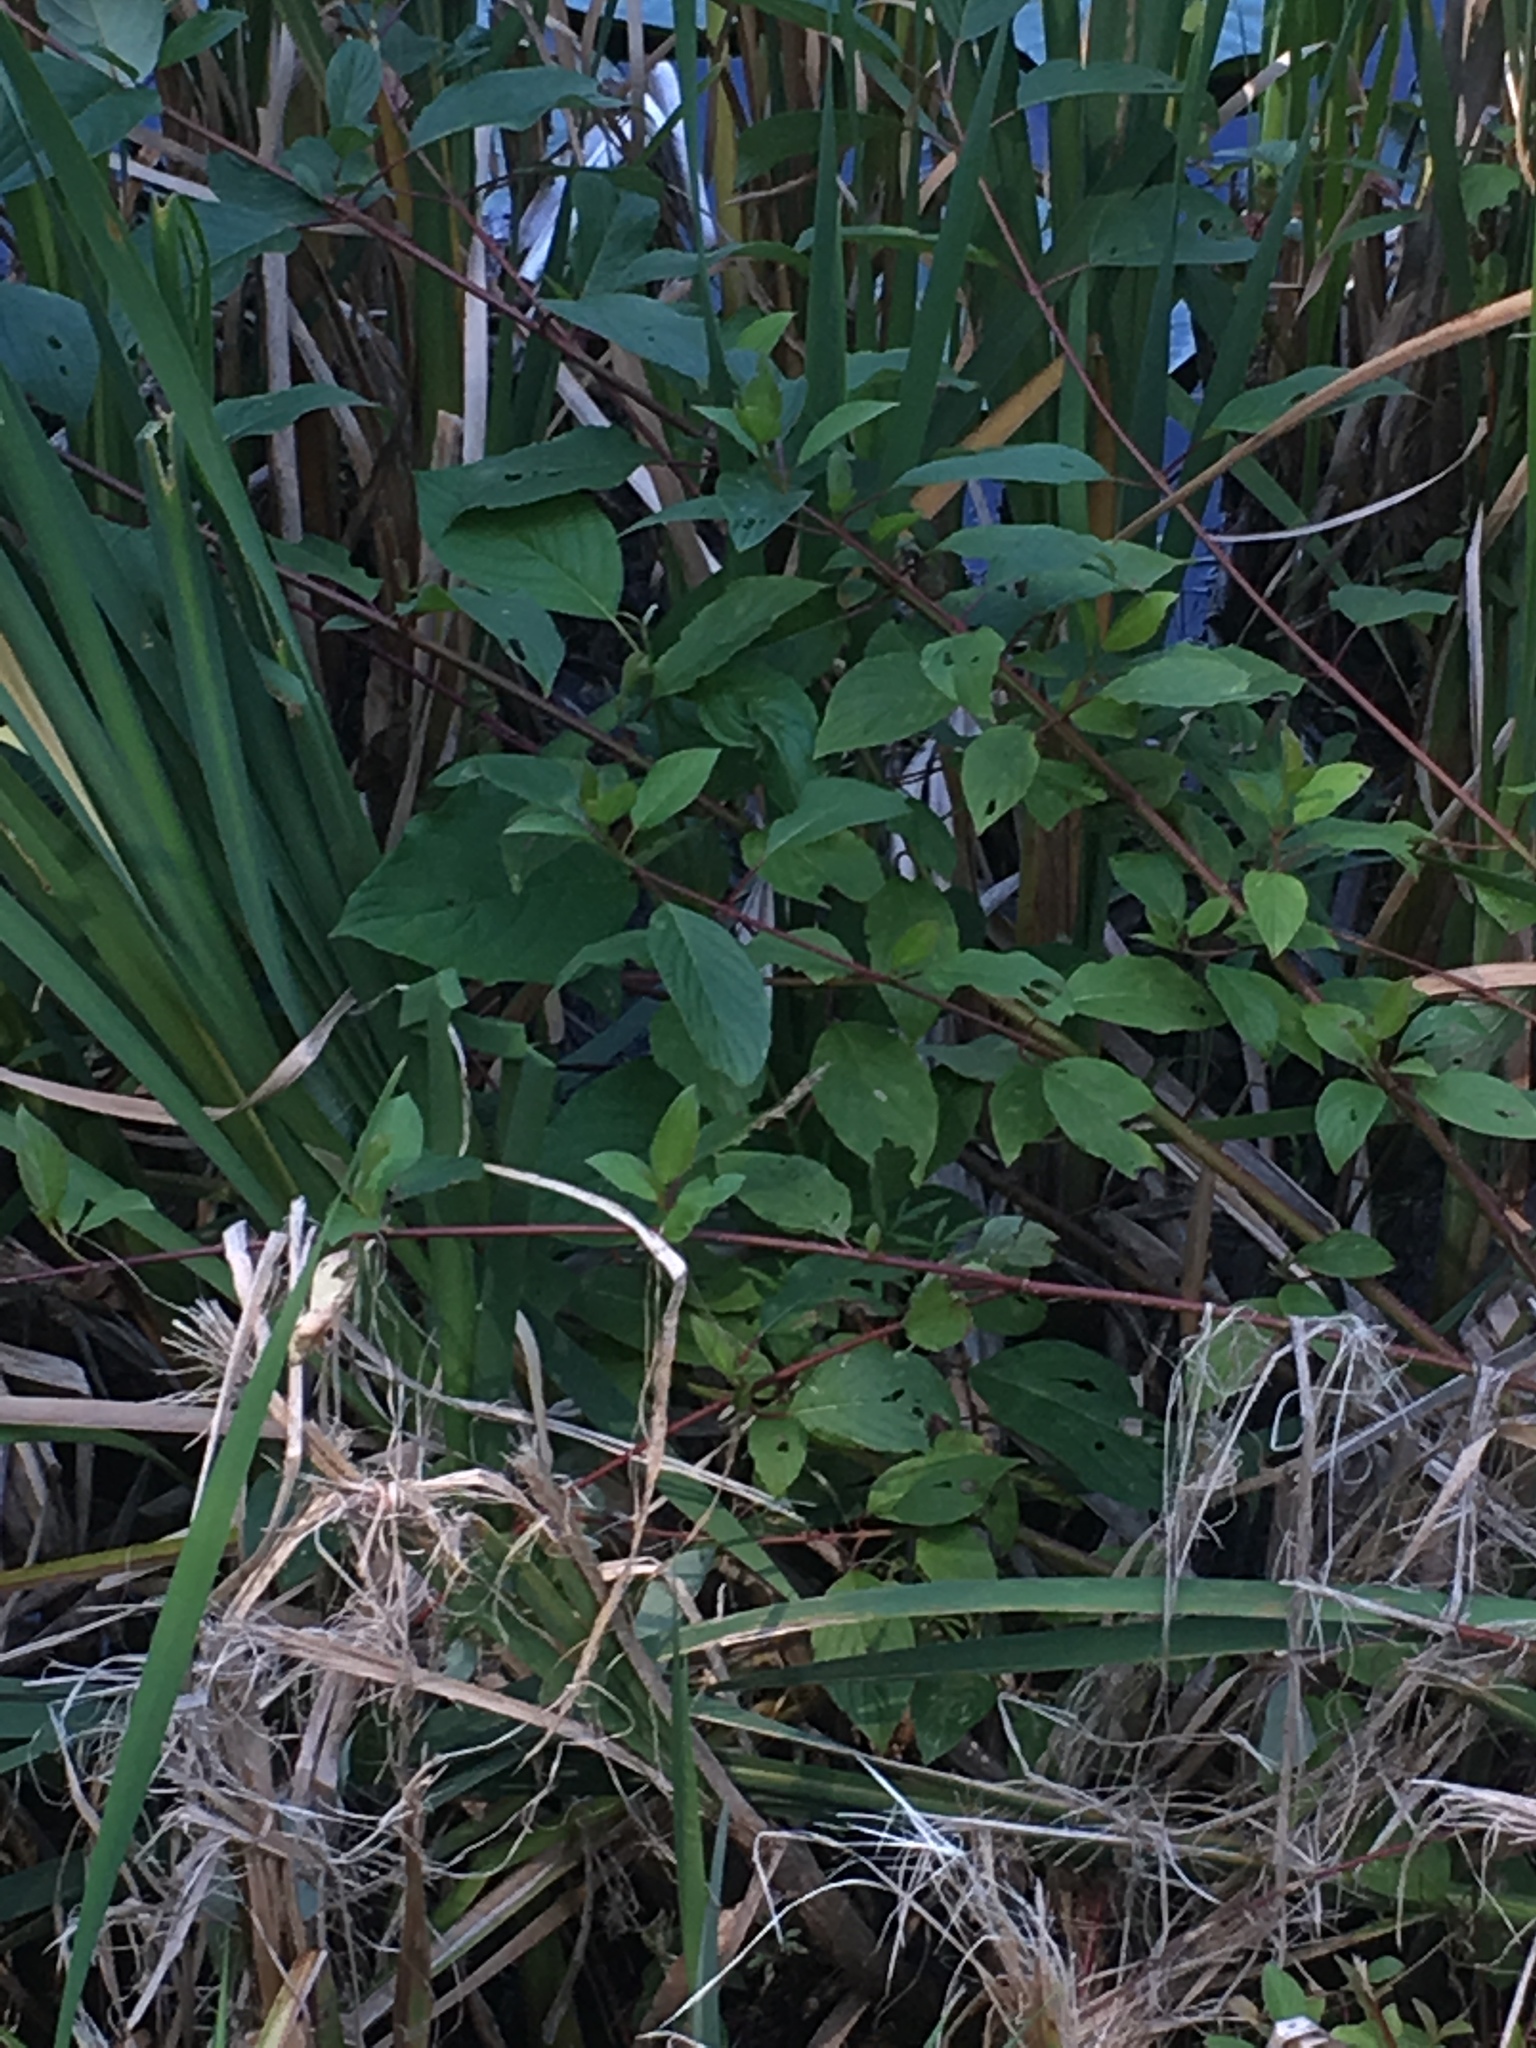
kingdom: Plantae
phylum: Tracheophyta
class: Magnoliopsida
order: Cornales
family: Cornaceae
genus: Cornus
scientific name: Cornus sericea
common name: Red-osier dogwood
